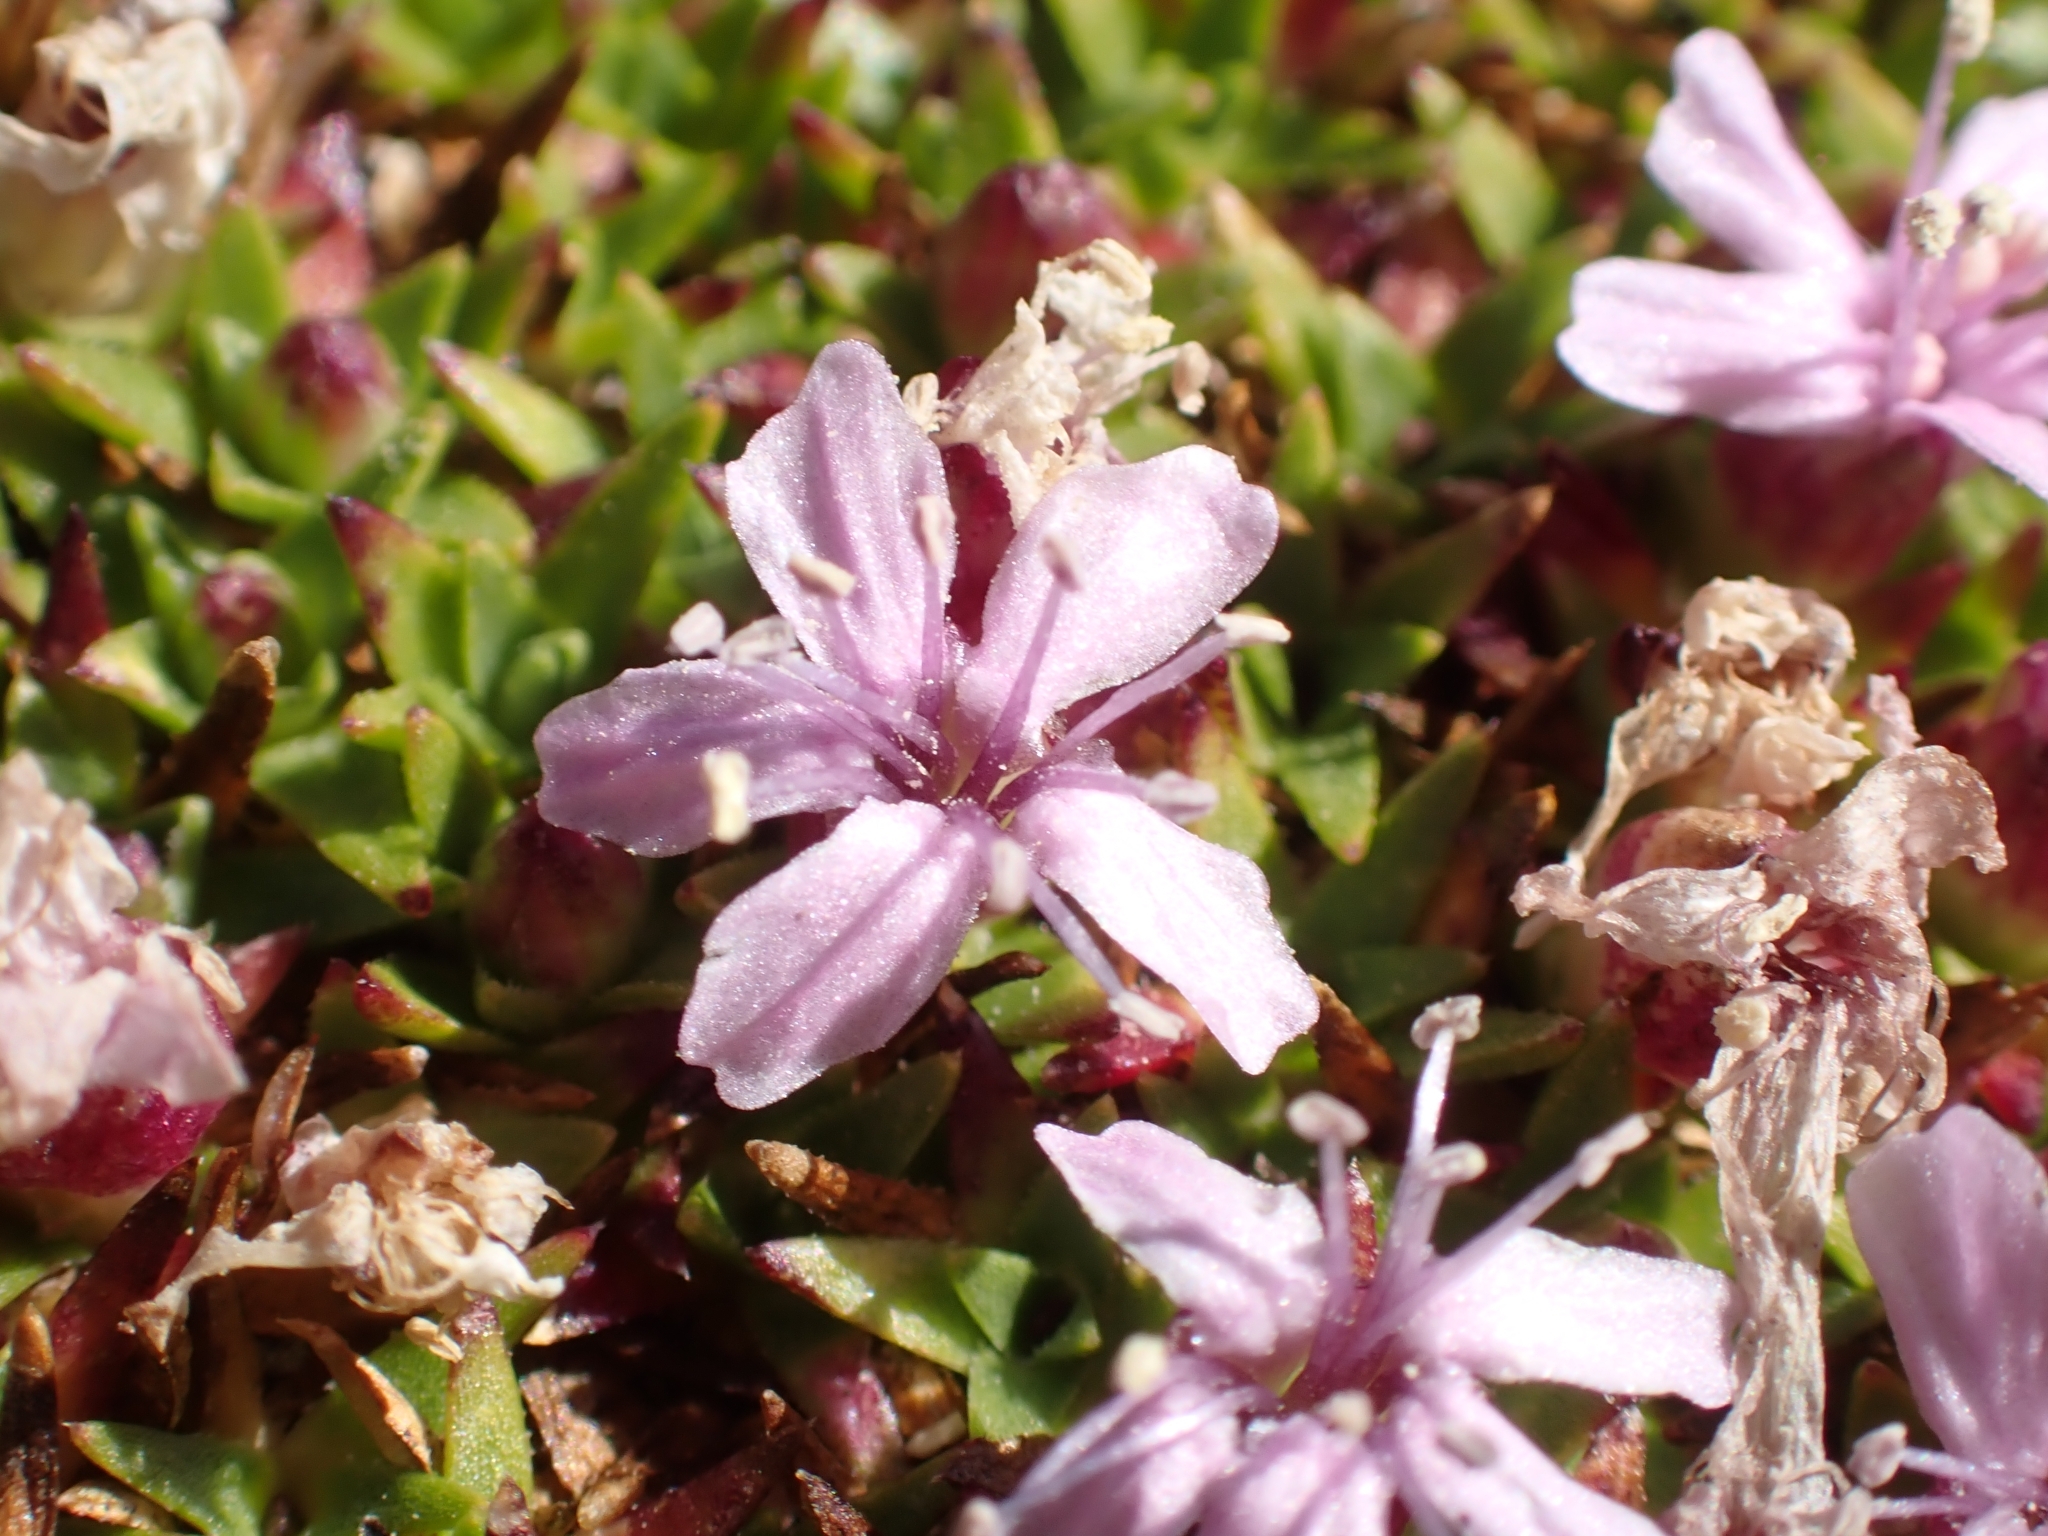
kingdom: Plantae
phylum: Tracheophyta
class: Magnoliopsida
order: Caryophyllales
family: Caryophyllaceae
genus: Silene
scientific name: Silene acaulis
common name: Moss campion
